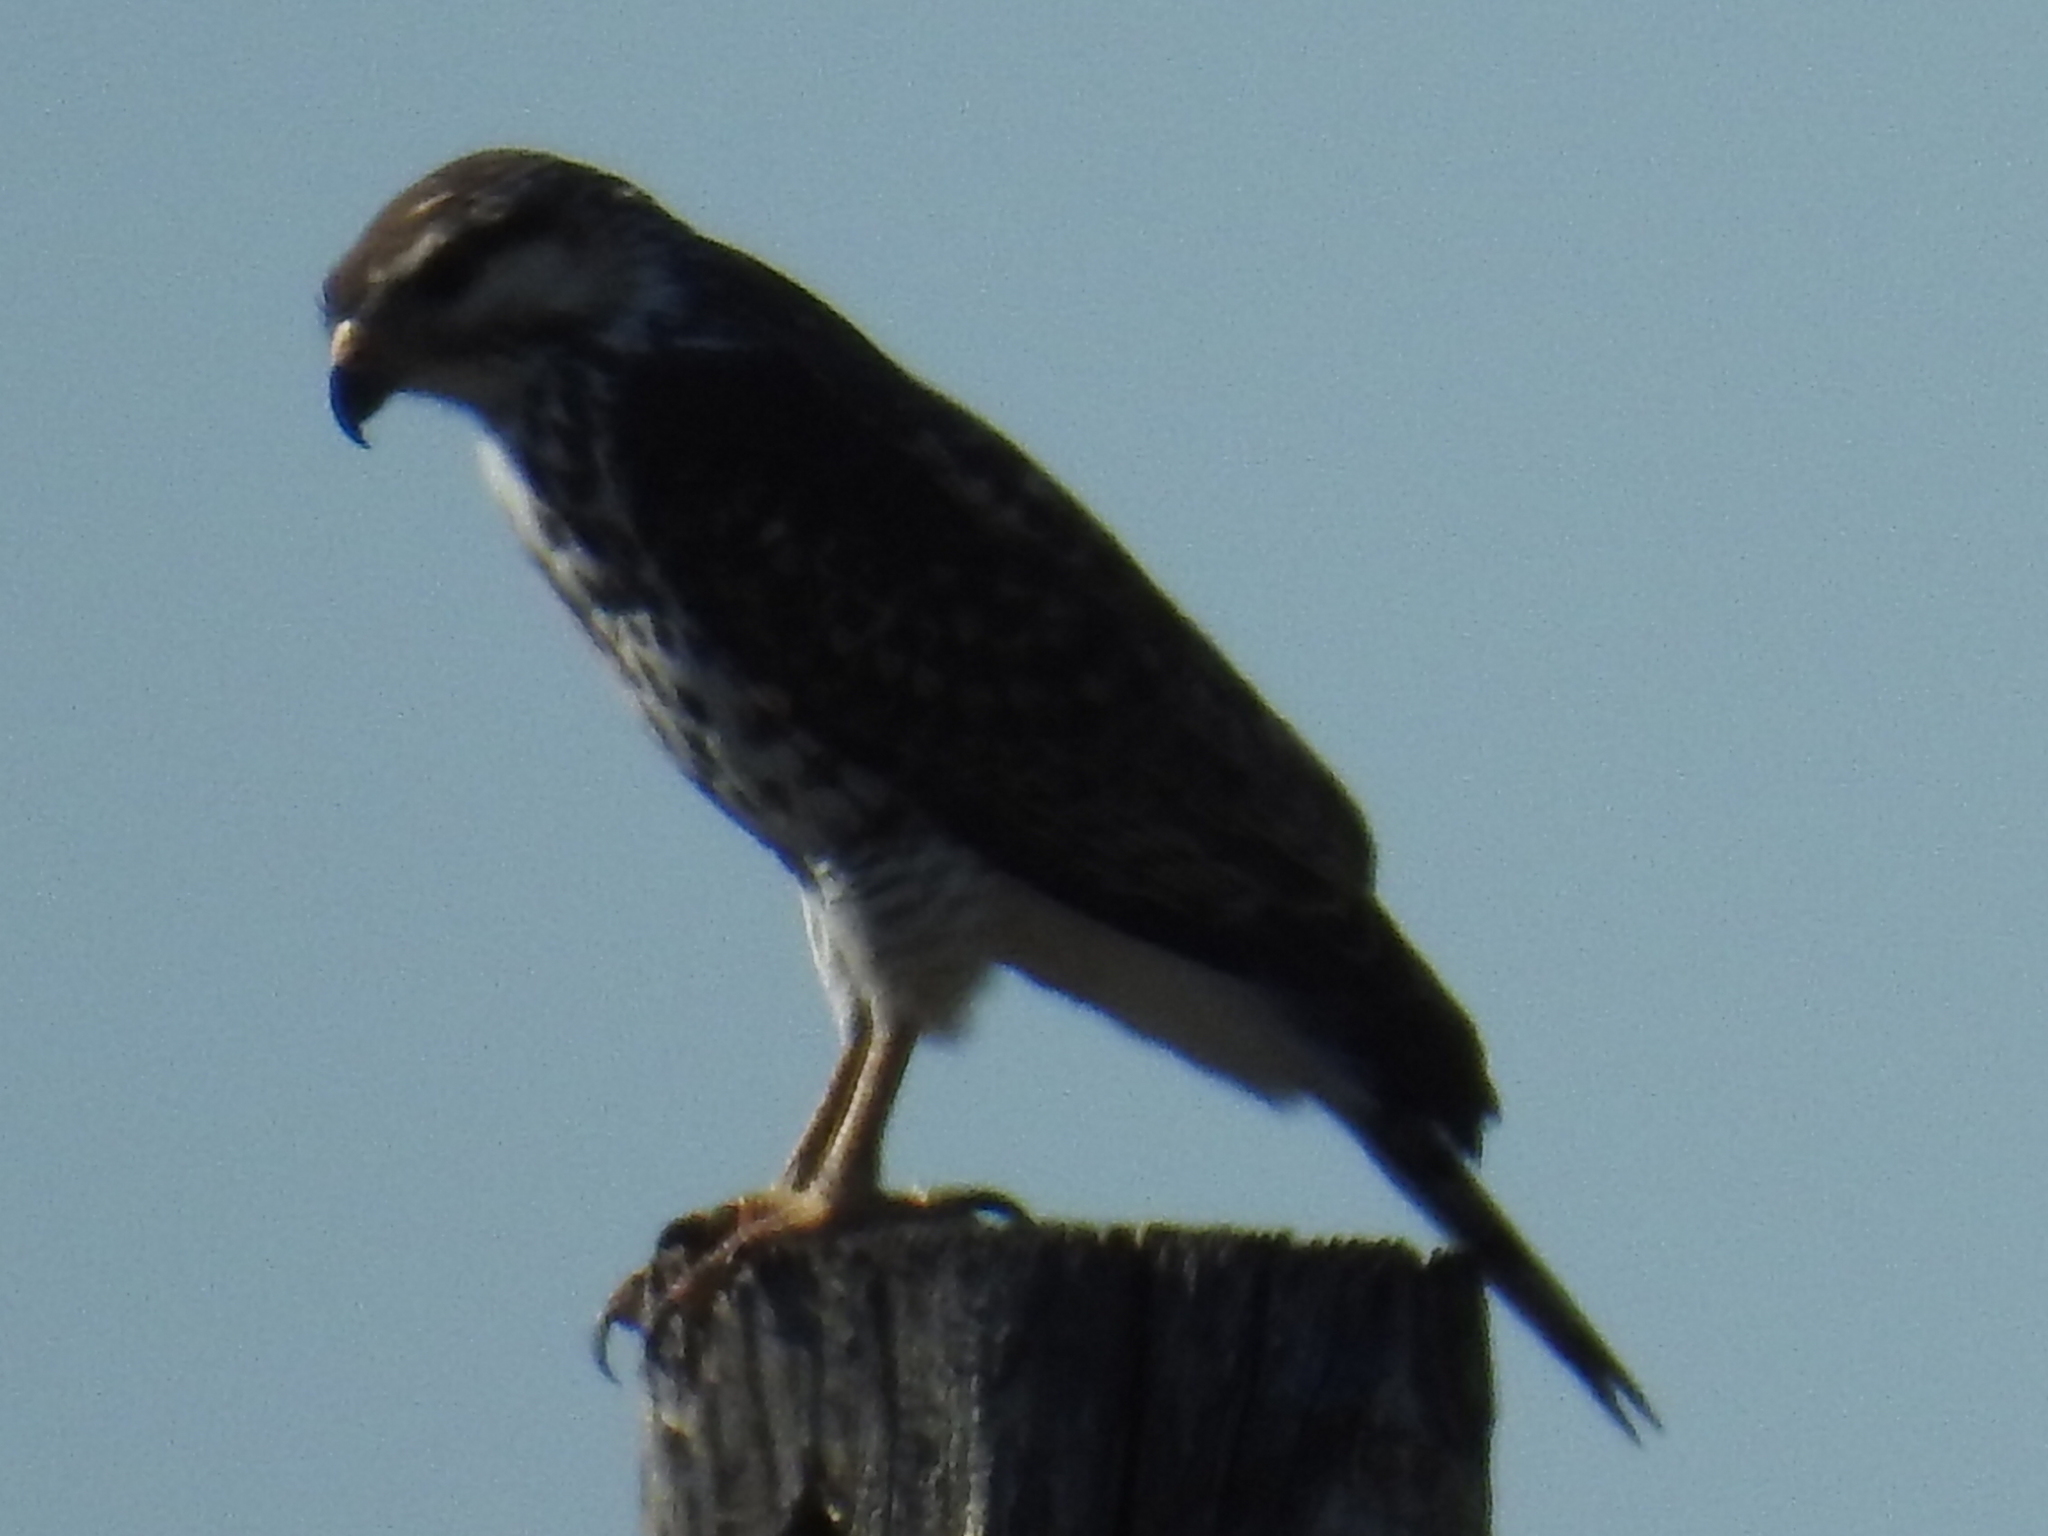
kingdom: Animalia
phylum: Chordata
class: Aves
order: Accipitriformes
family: Accipitridae
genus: Buteo
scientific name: Buteo nitidus
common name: Grey-lined hawk
